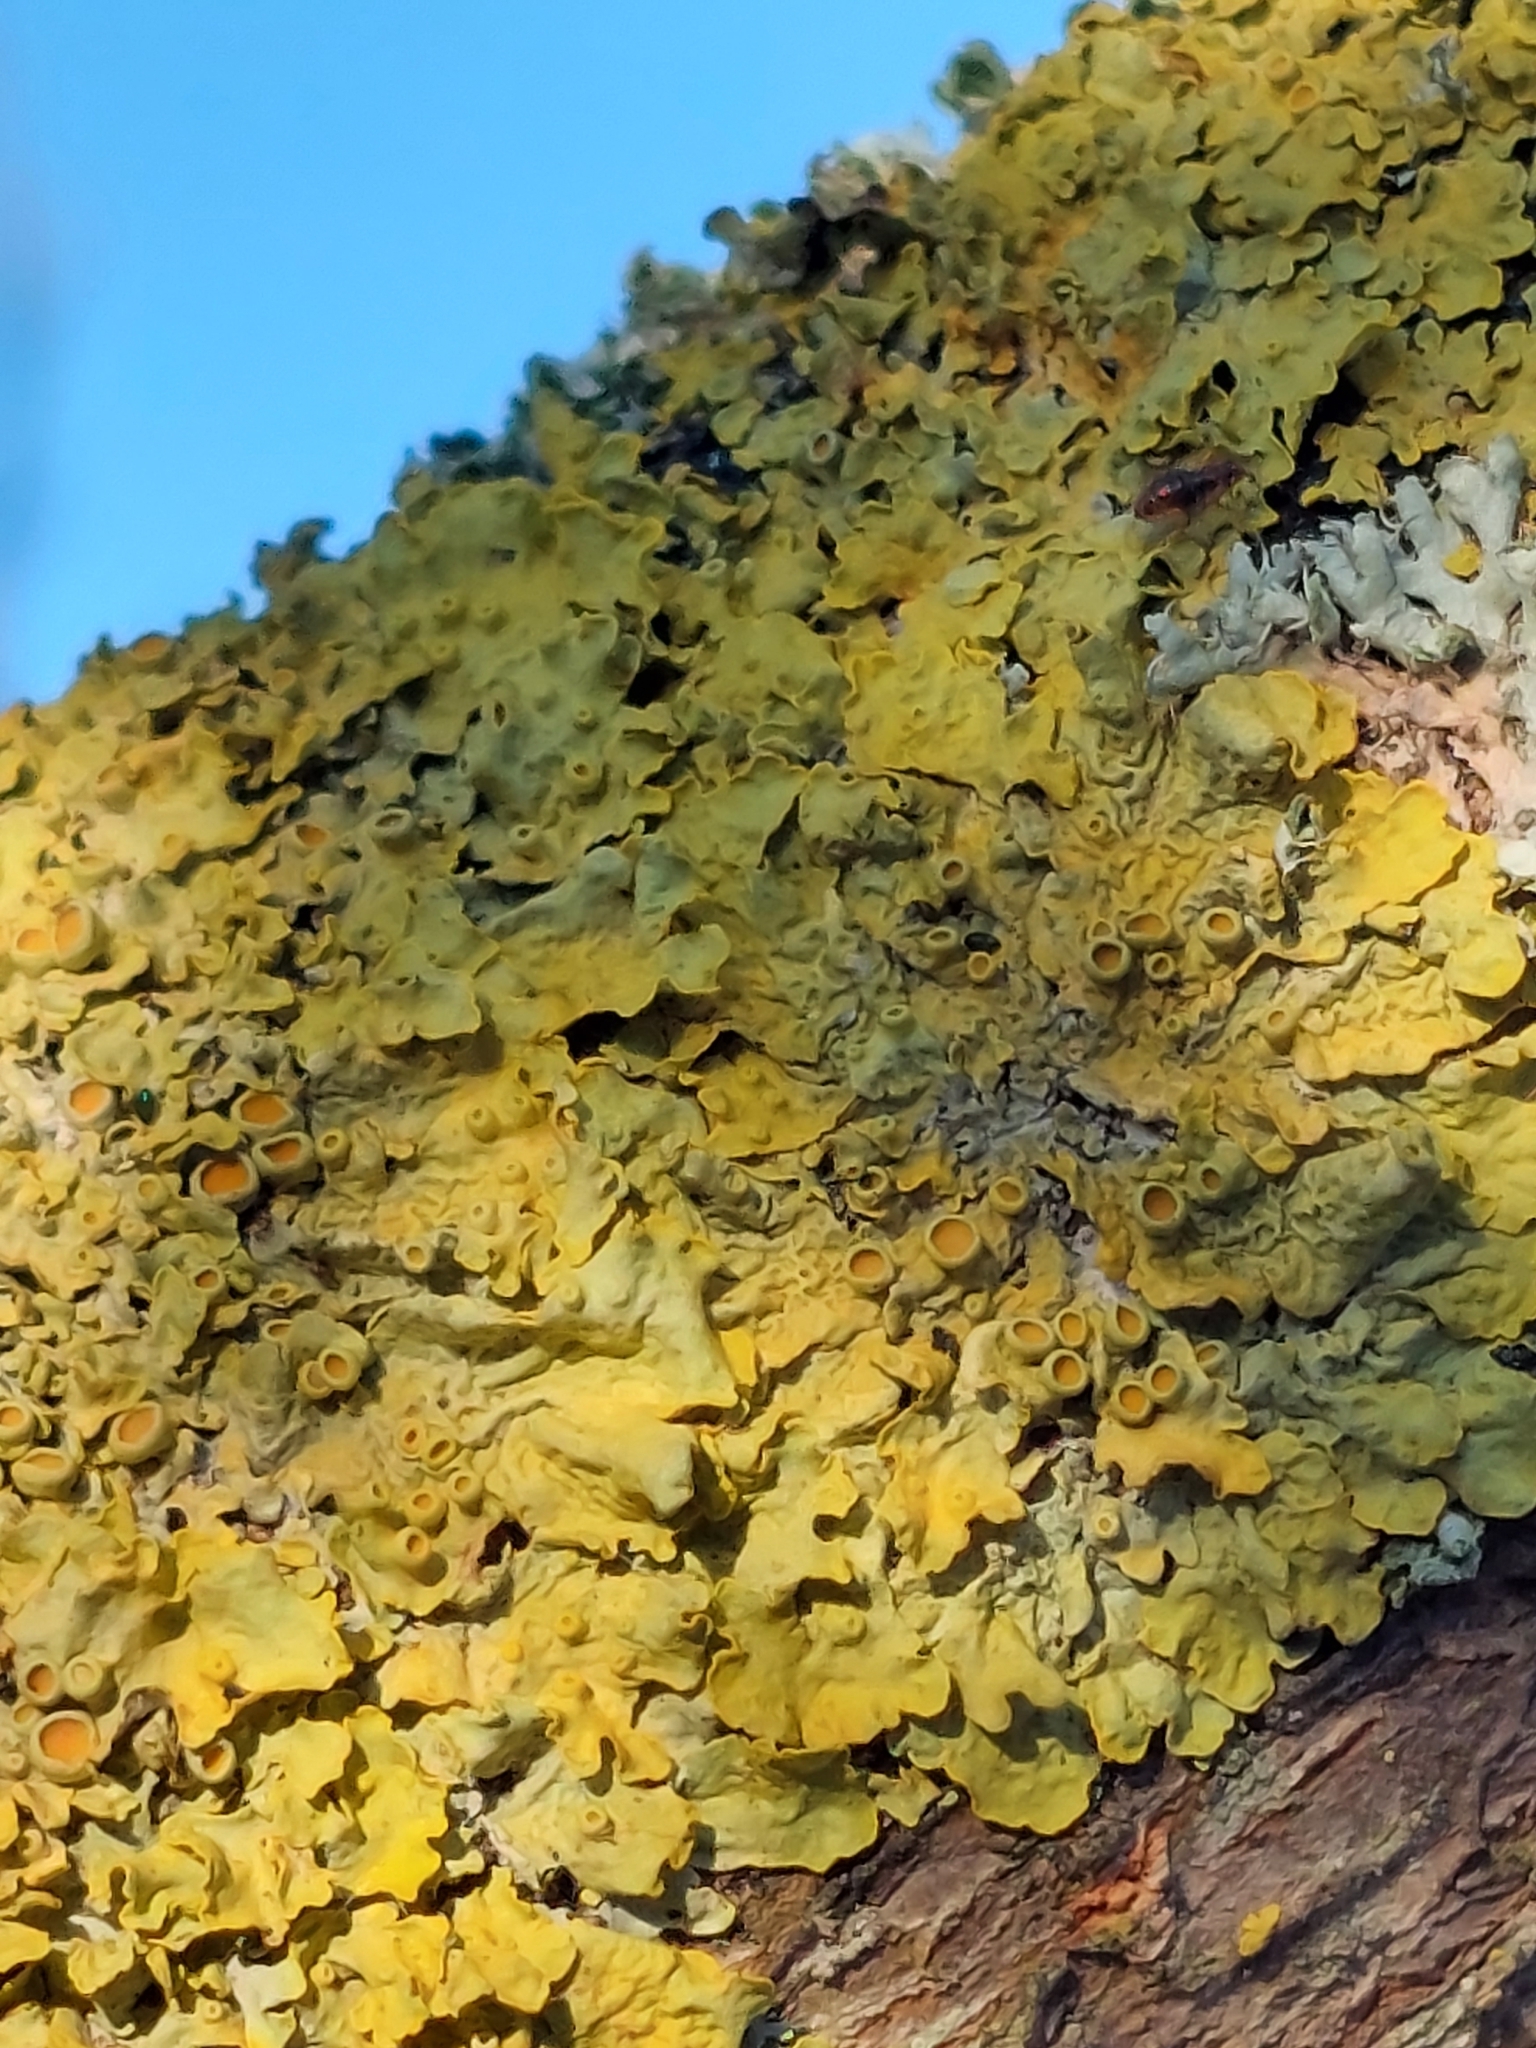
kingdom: Fungi
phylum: Ascomycota
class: Lecanoromycetes
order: Teloschistales
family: Teloschistaceae
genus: Xanthoria
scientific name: Xanthoria parietina
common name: Common orange lichen
